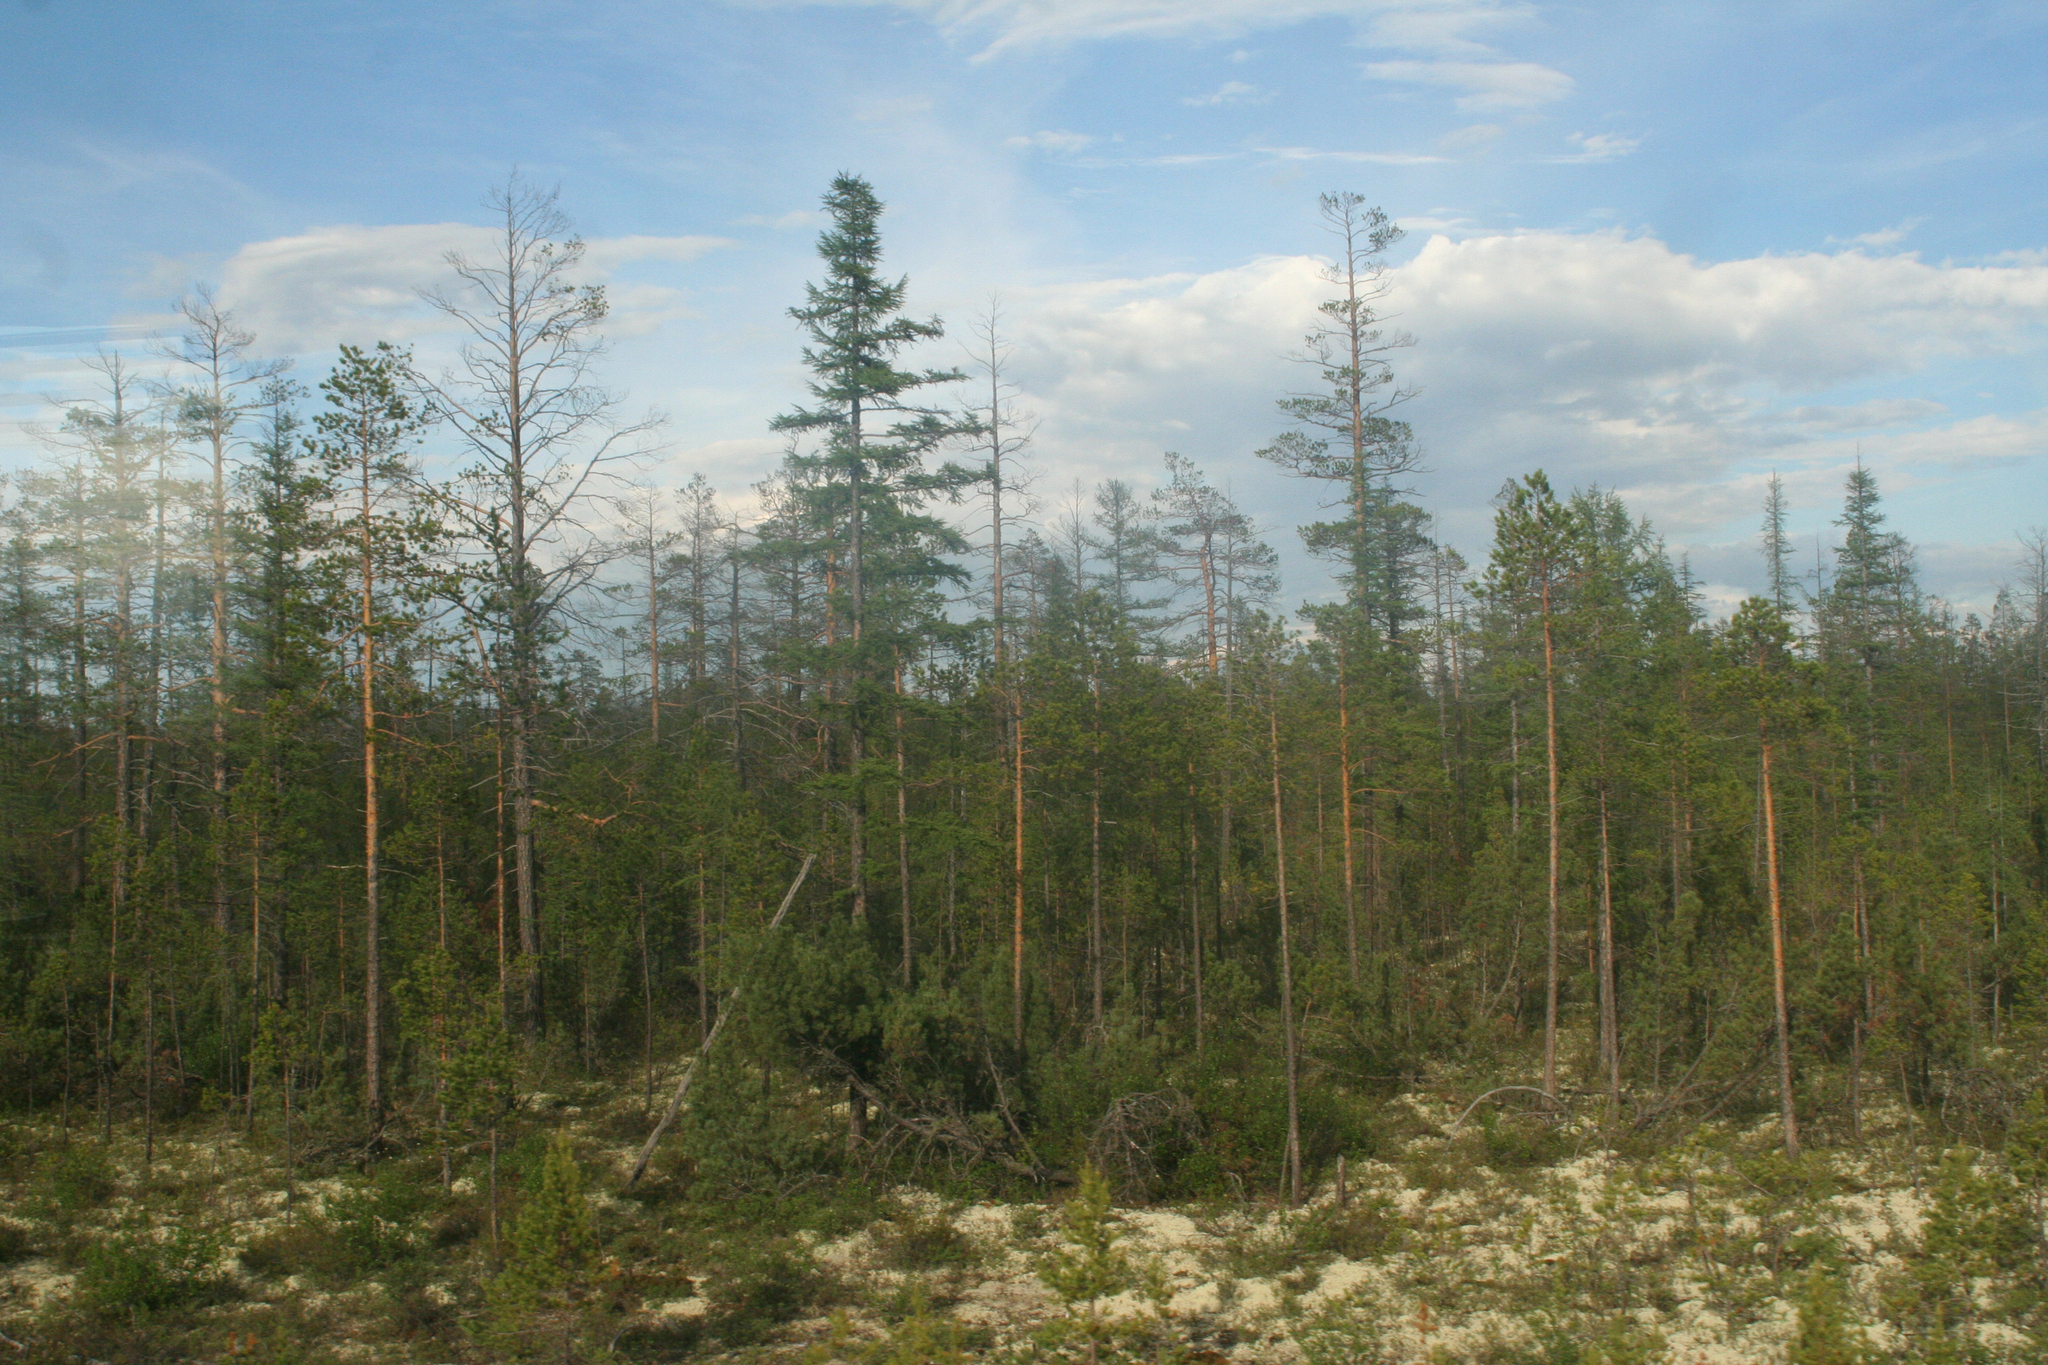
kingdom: Plantae
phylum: Tracheophyta
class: Pinopsida
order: Pinales
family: Pinaceae
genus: Larix
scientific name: Larix gmelinii
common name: Dahurian larch
